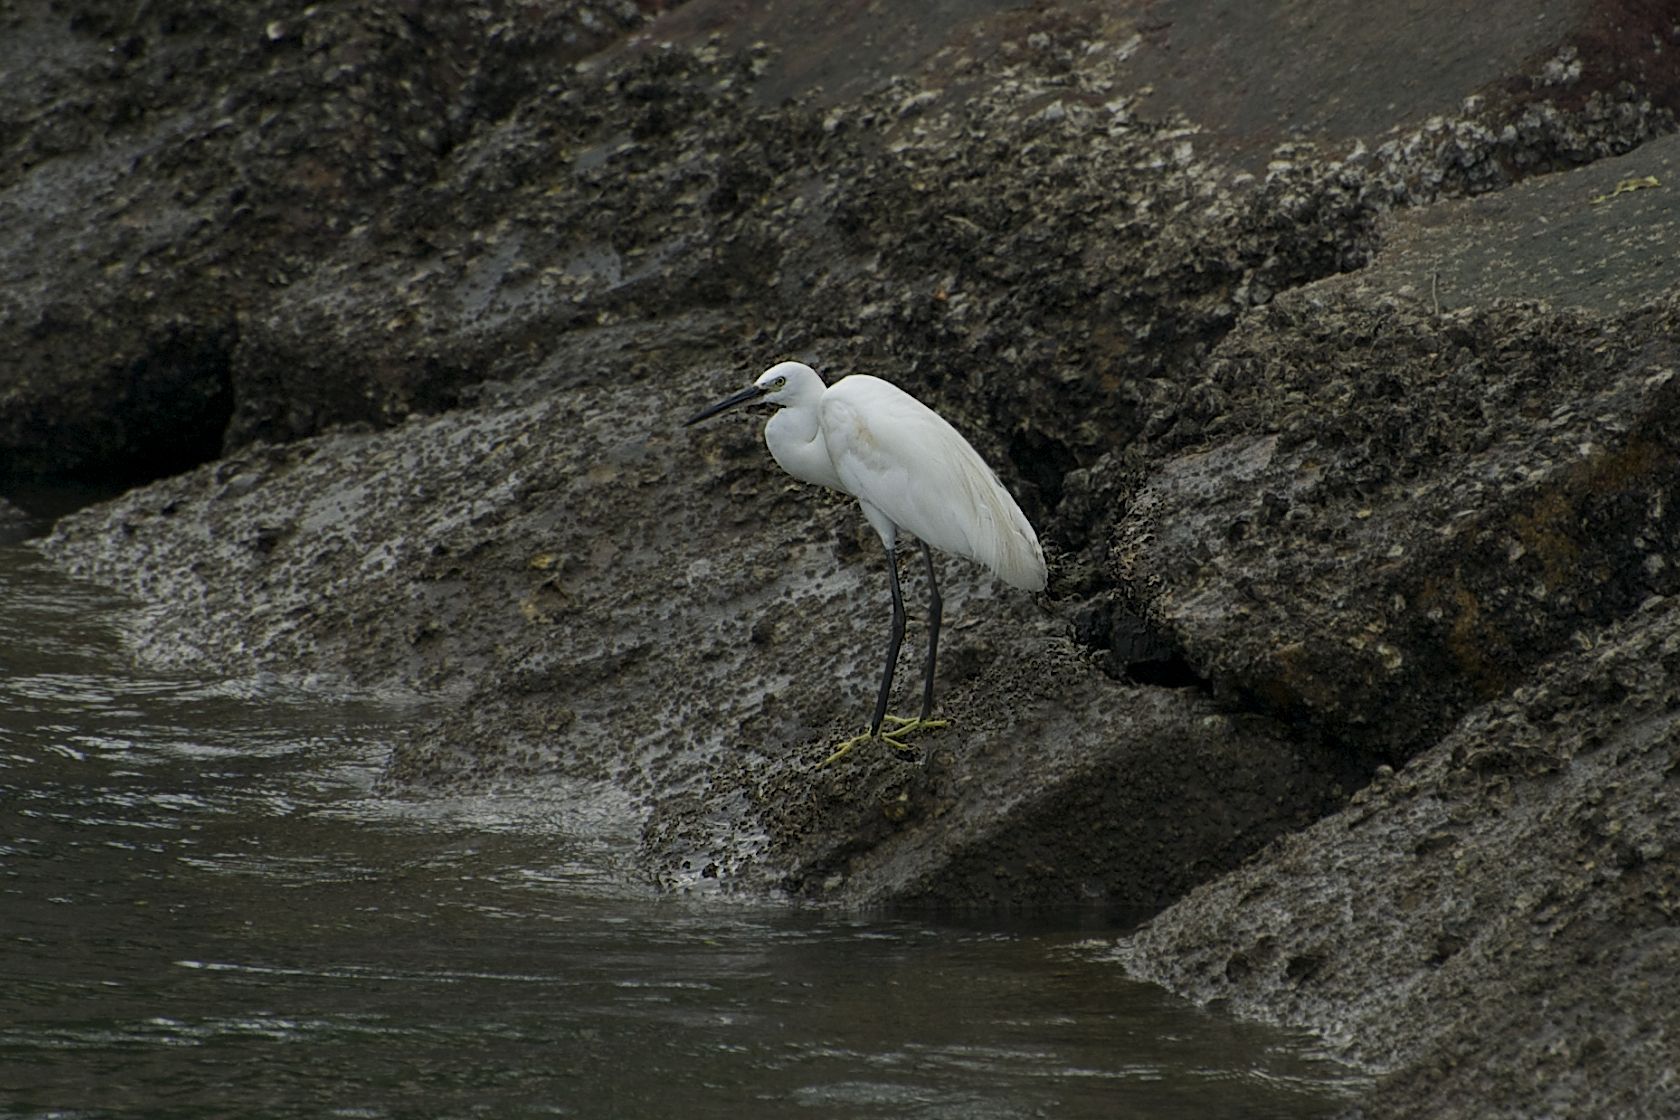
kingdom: Animalia
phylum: Chordata
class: Aves
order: Pelecaniformes
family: Ardeidae
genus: Egretta
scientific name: Egretta garzetta
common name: Little egret
